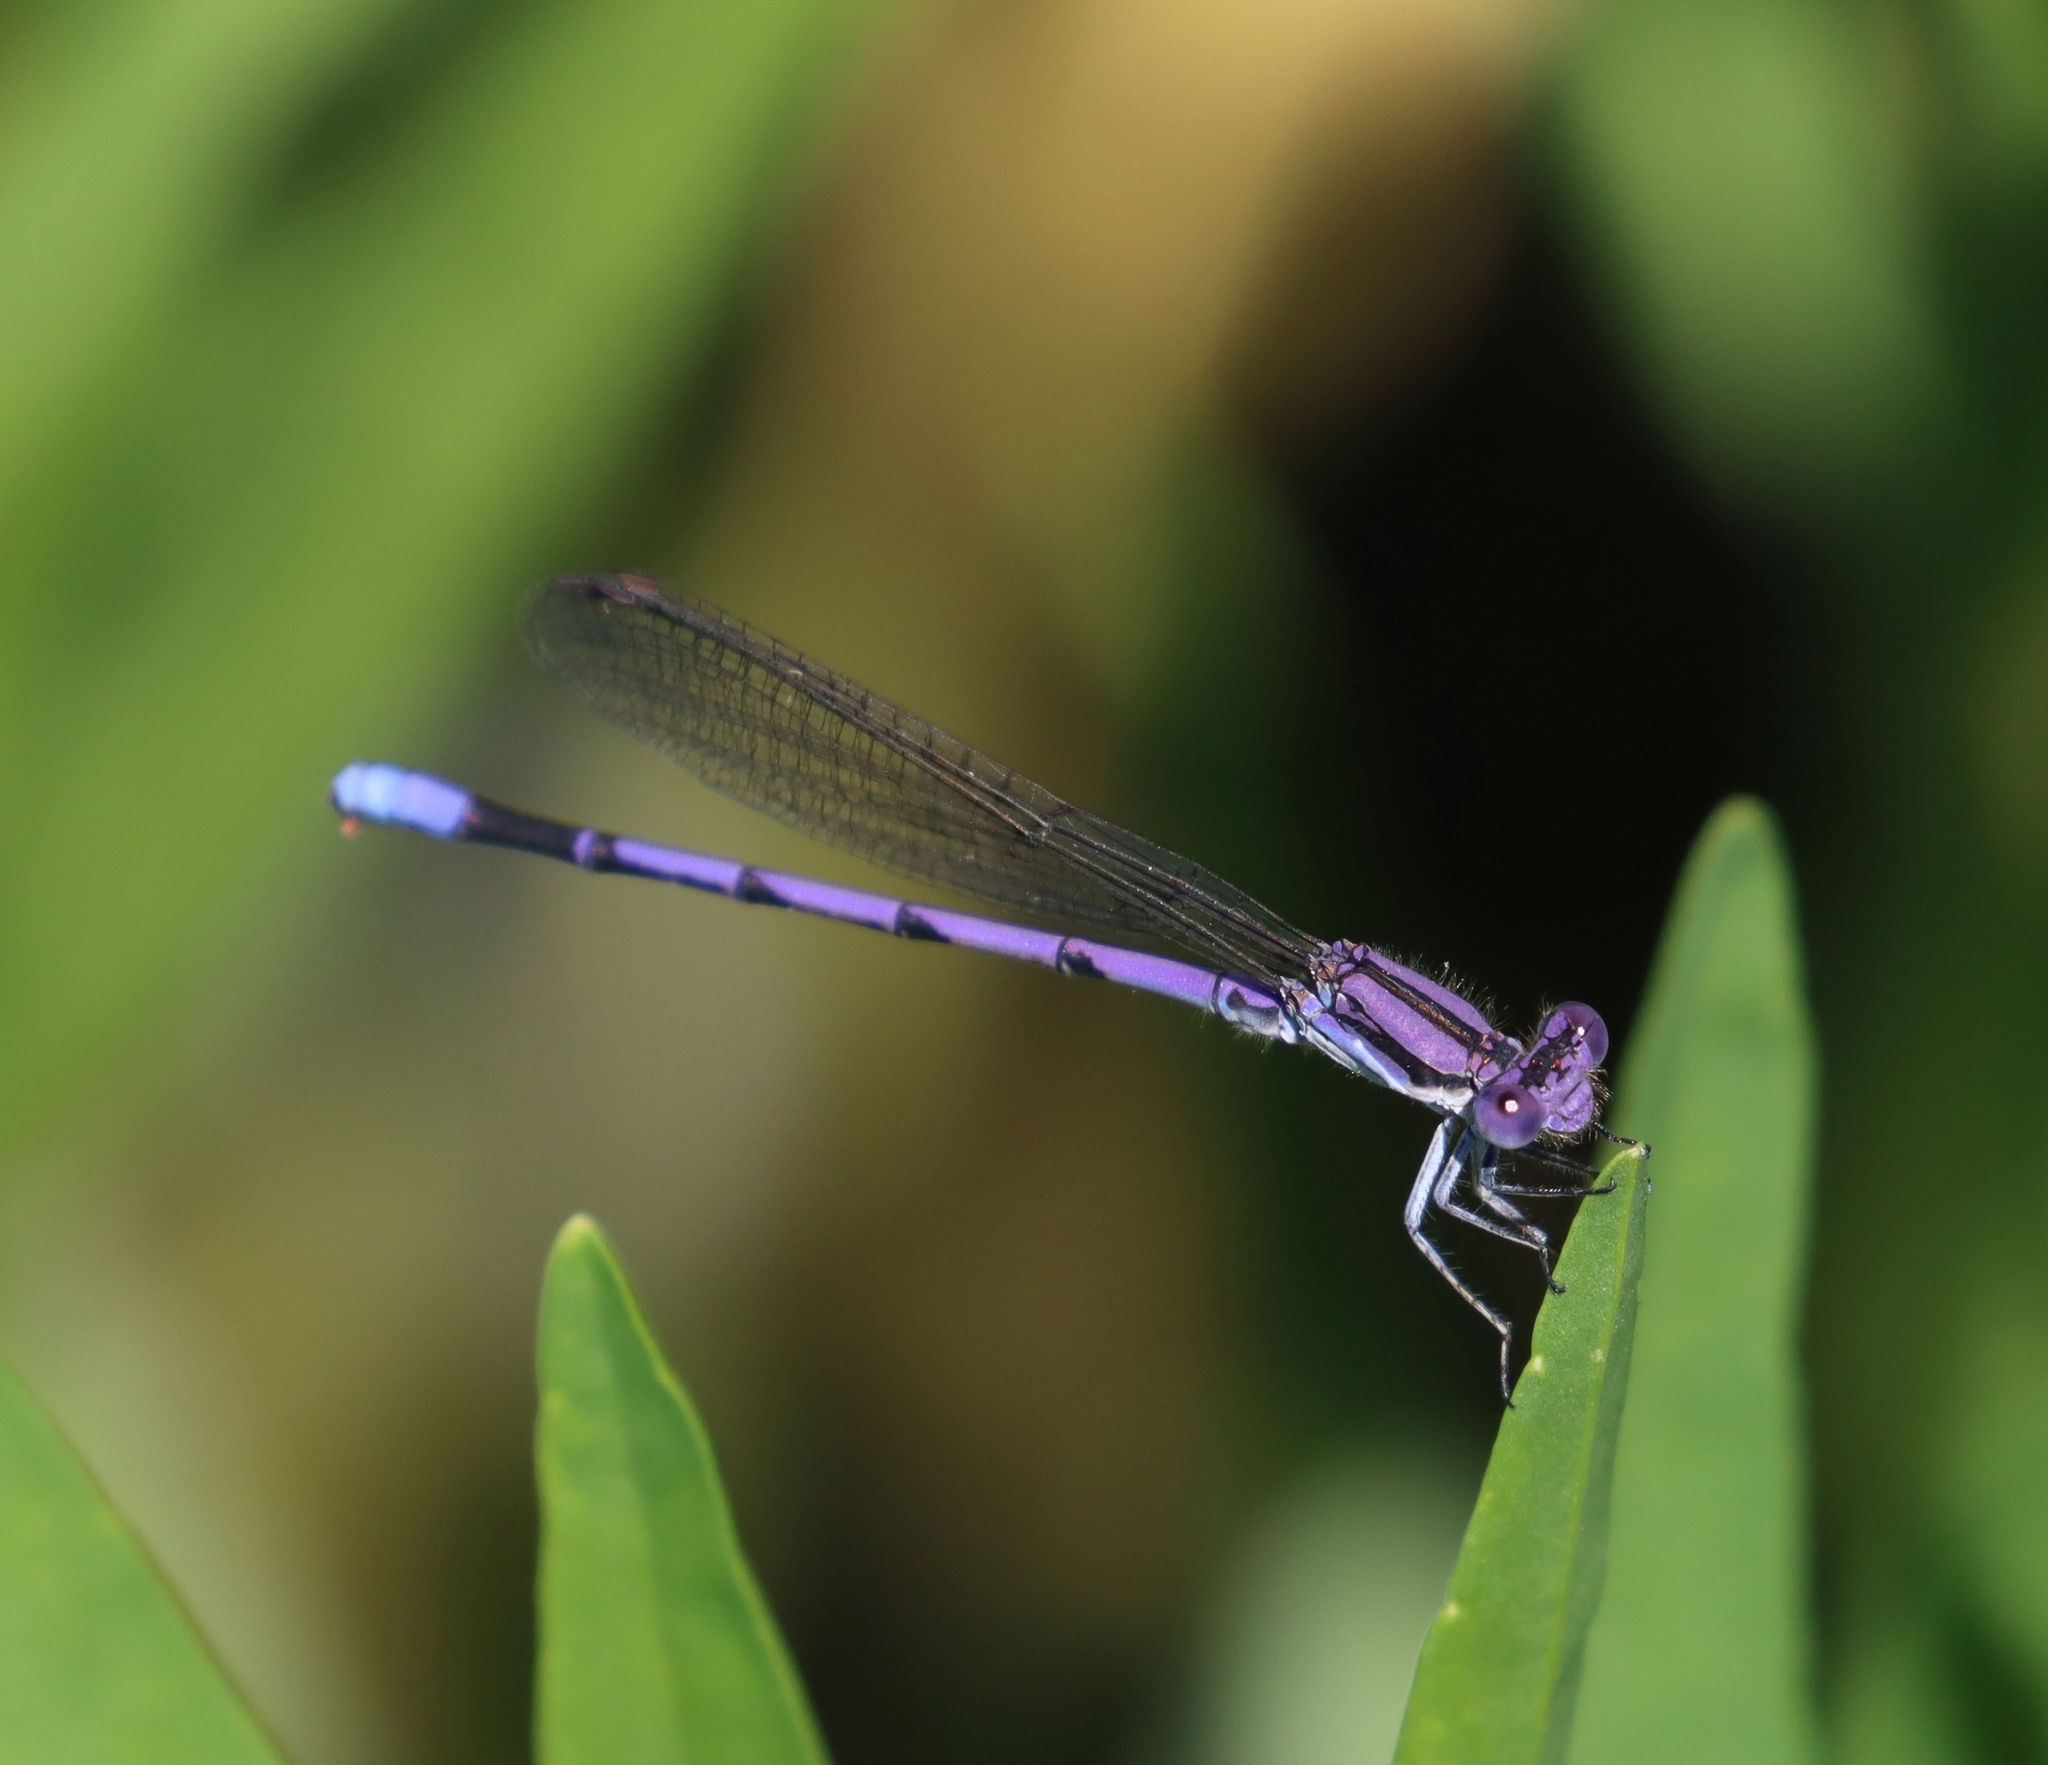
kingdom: Animalia
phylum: Arthropoda
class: Insecta
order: Odonata
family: Coenagrionidae
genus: Argia
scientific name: Argia fumipennis
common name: Variable dancer
